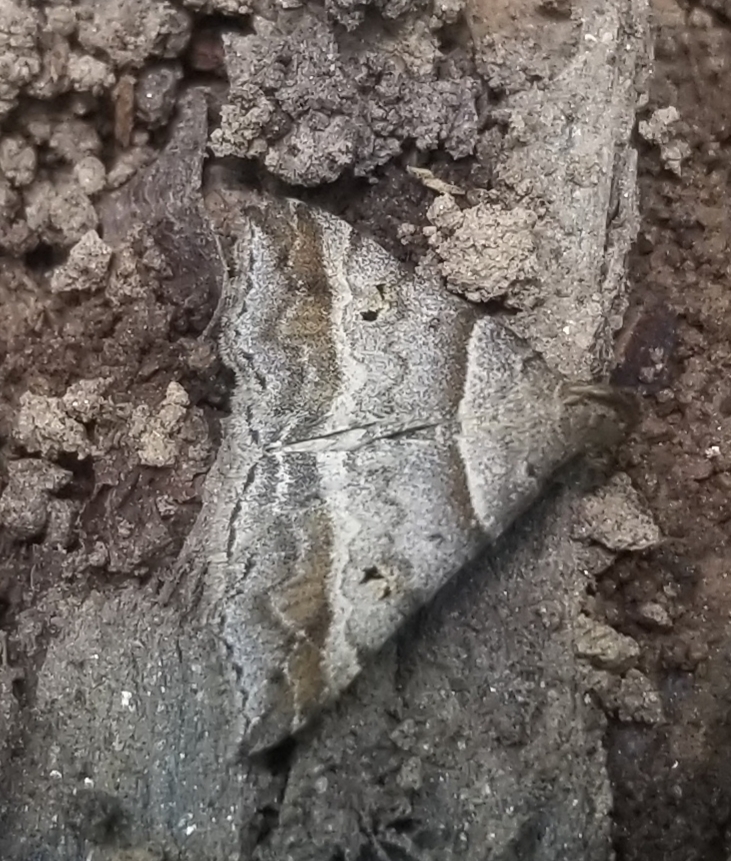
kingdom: Animalia
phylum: Arthropoda
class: Insecta
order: Lepidoptera
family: Erebidae
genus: Phaeolita
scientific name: Phaeolita pyramusalis
